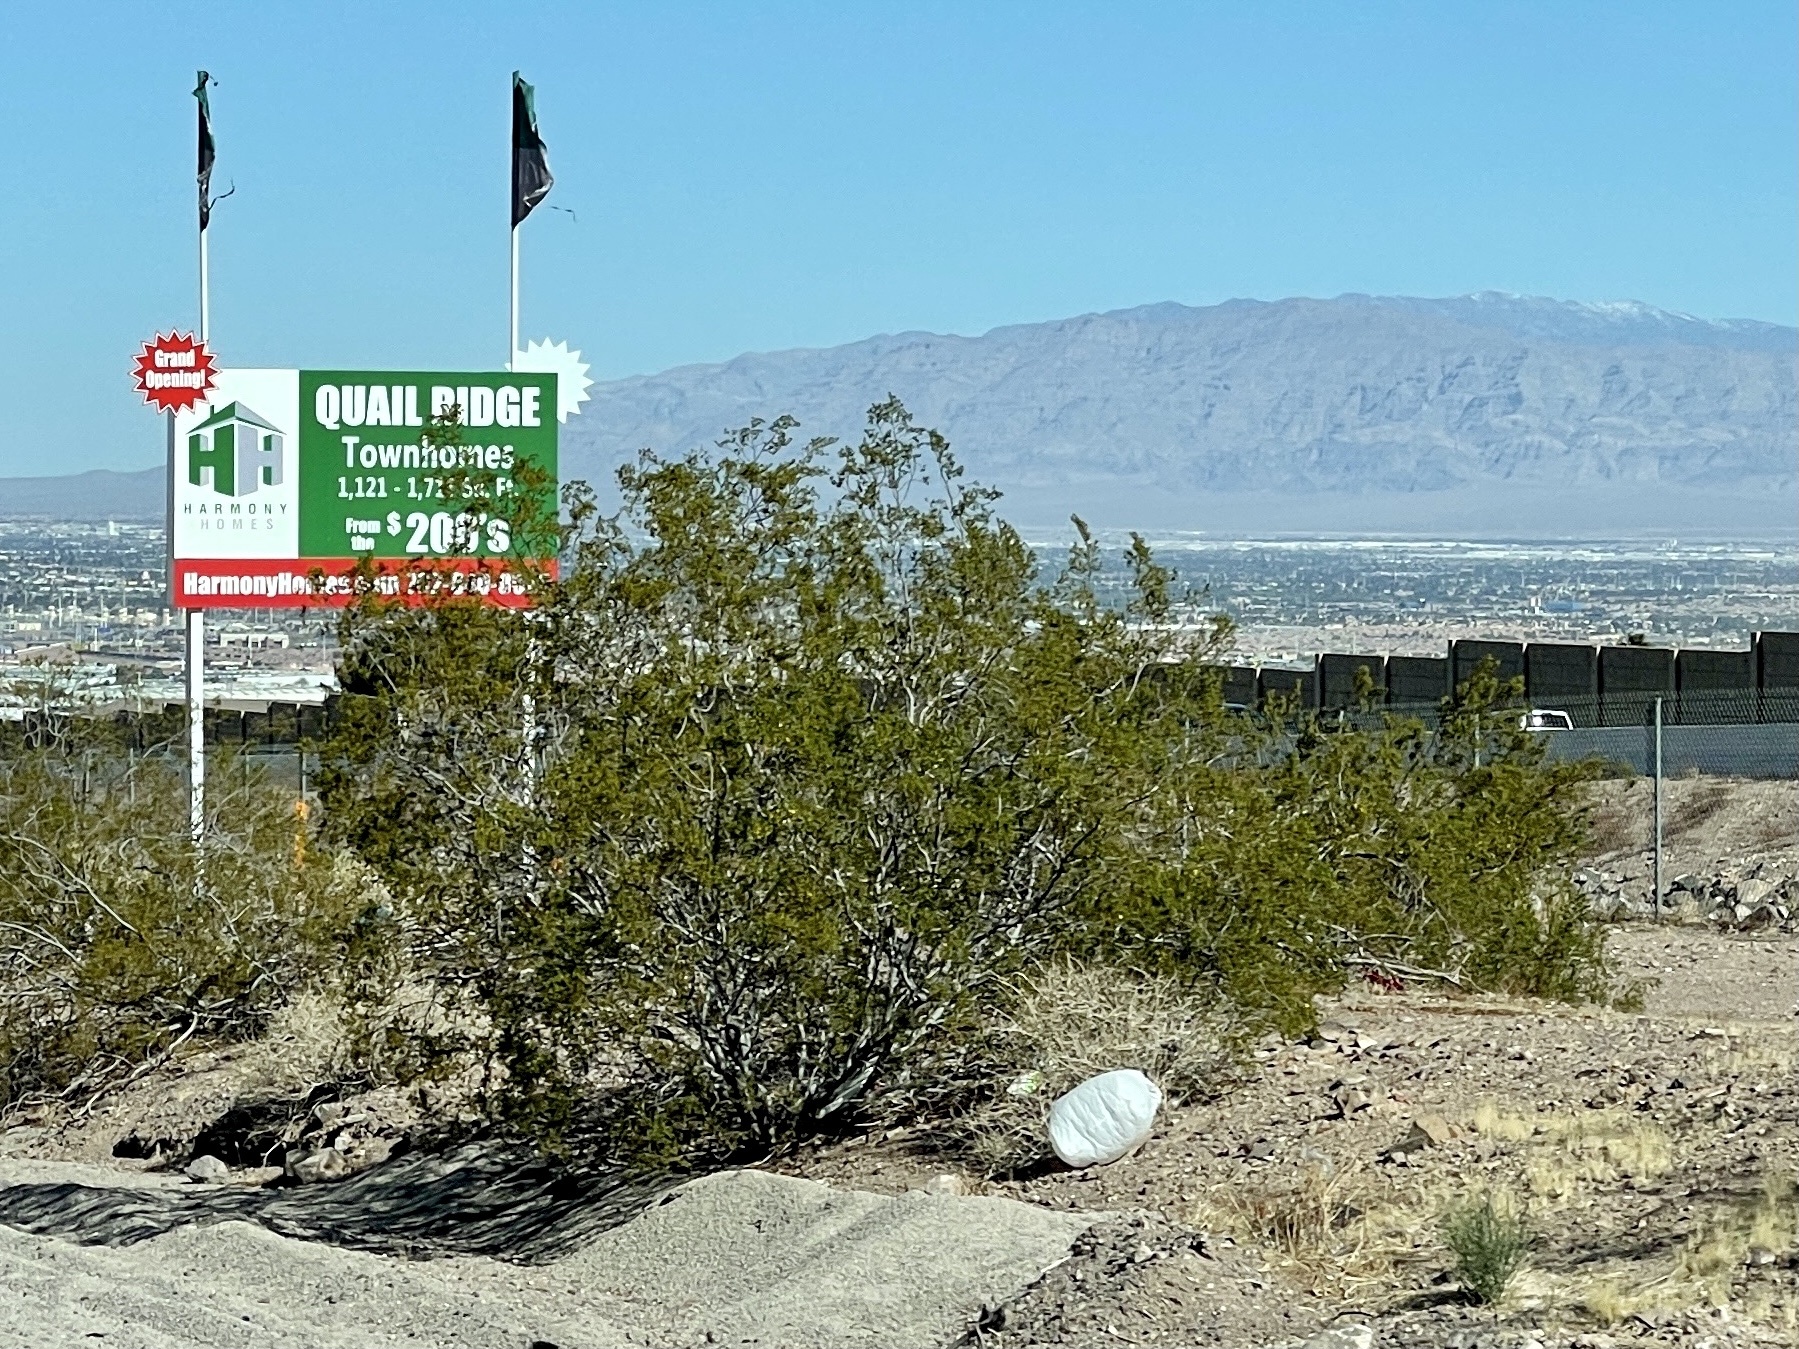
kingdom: Plantae
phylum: Tracheophyta
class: Magnoliopsida
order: Zygophyllales
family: Zygophyllaceae
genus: Larrea
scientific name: Larrea tridentata
